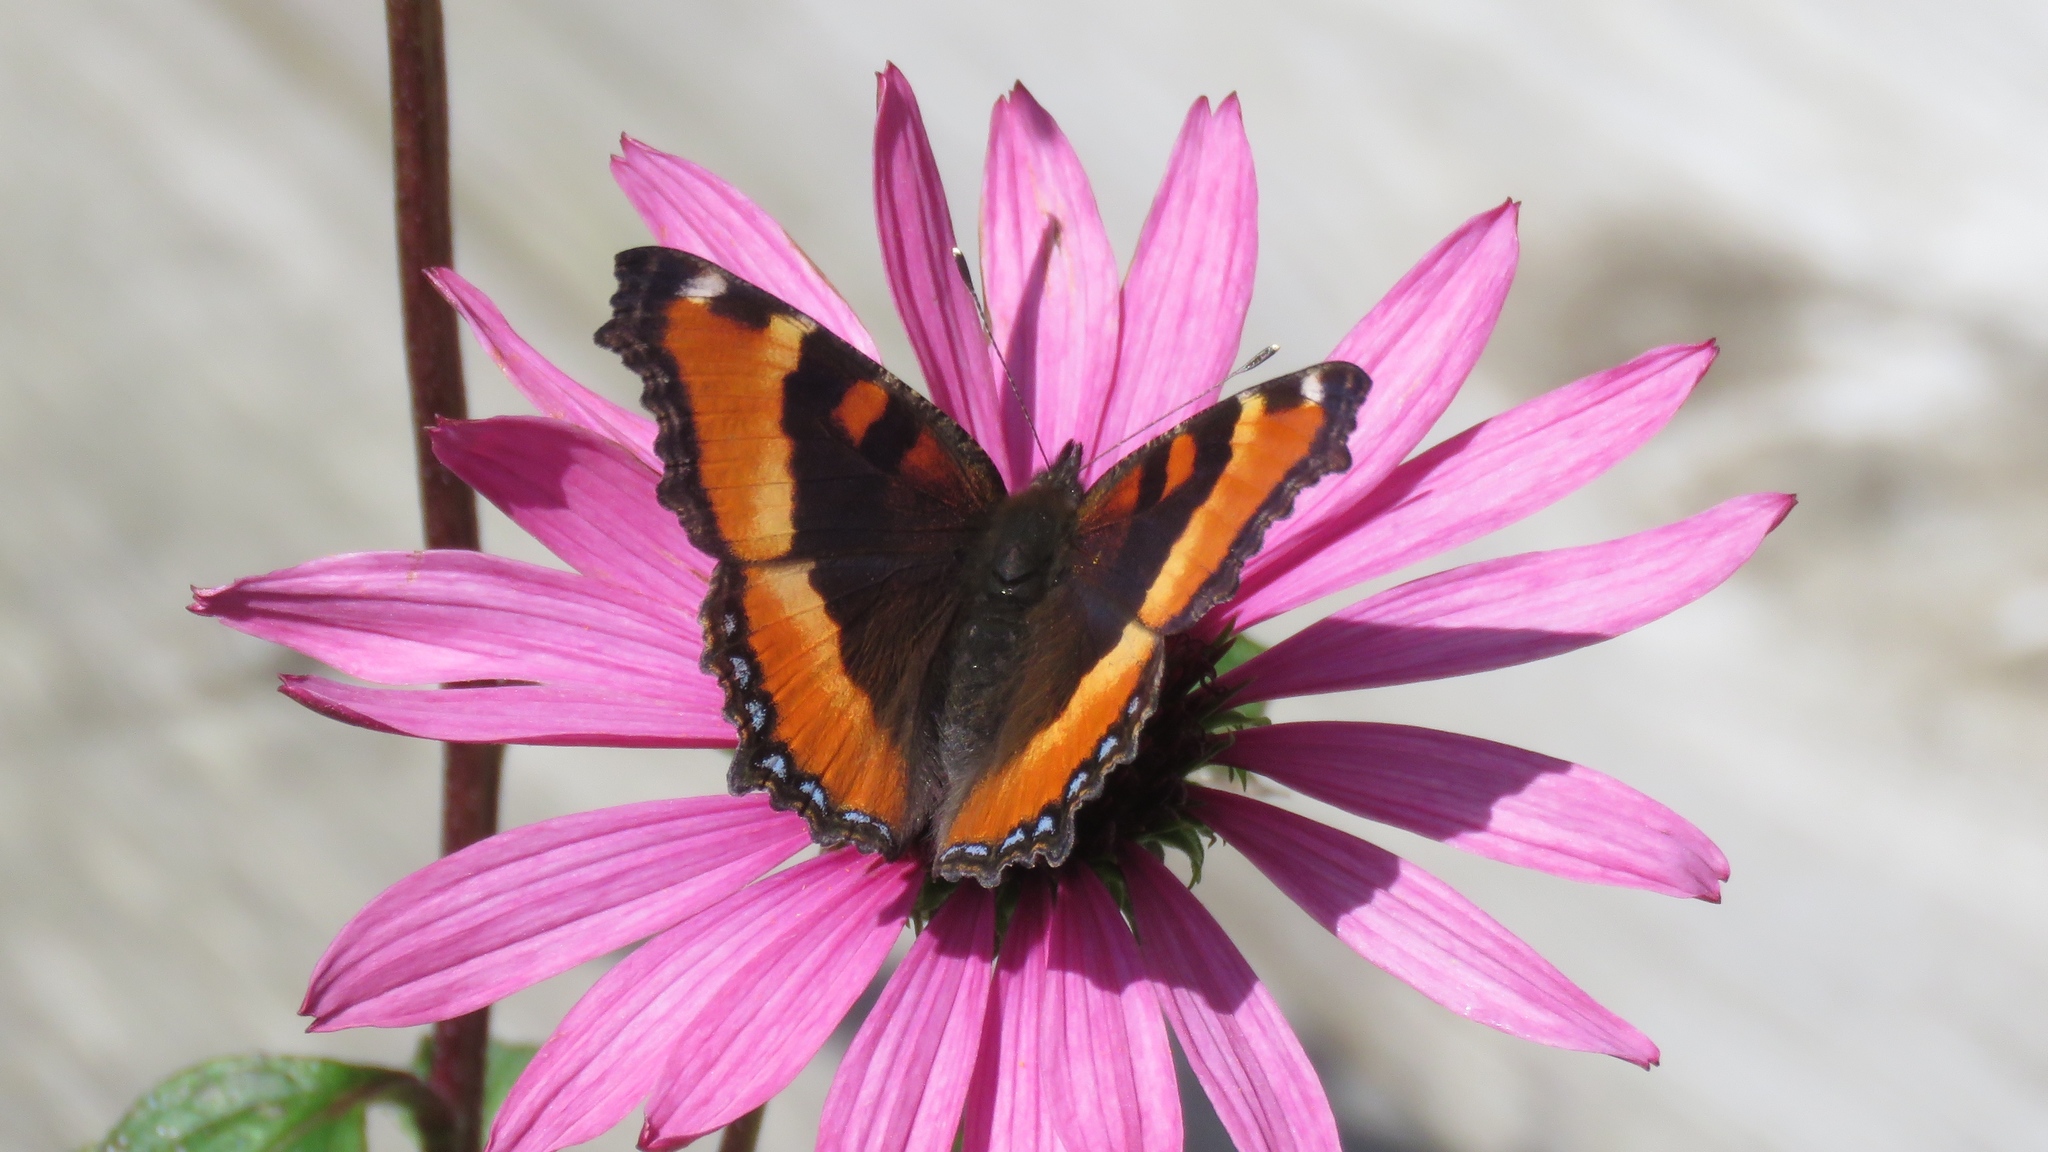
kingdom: Animalia
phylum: Arthropoda
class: Insecta
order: Lepidoptera
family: Nymphalidae
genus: Aglais
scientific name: Aglais milberti
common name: Milbert's tortoiseshell
